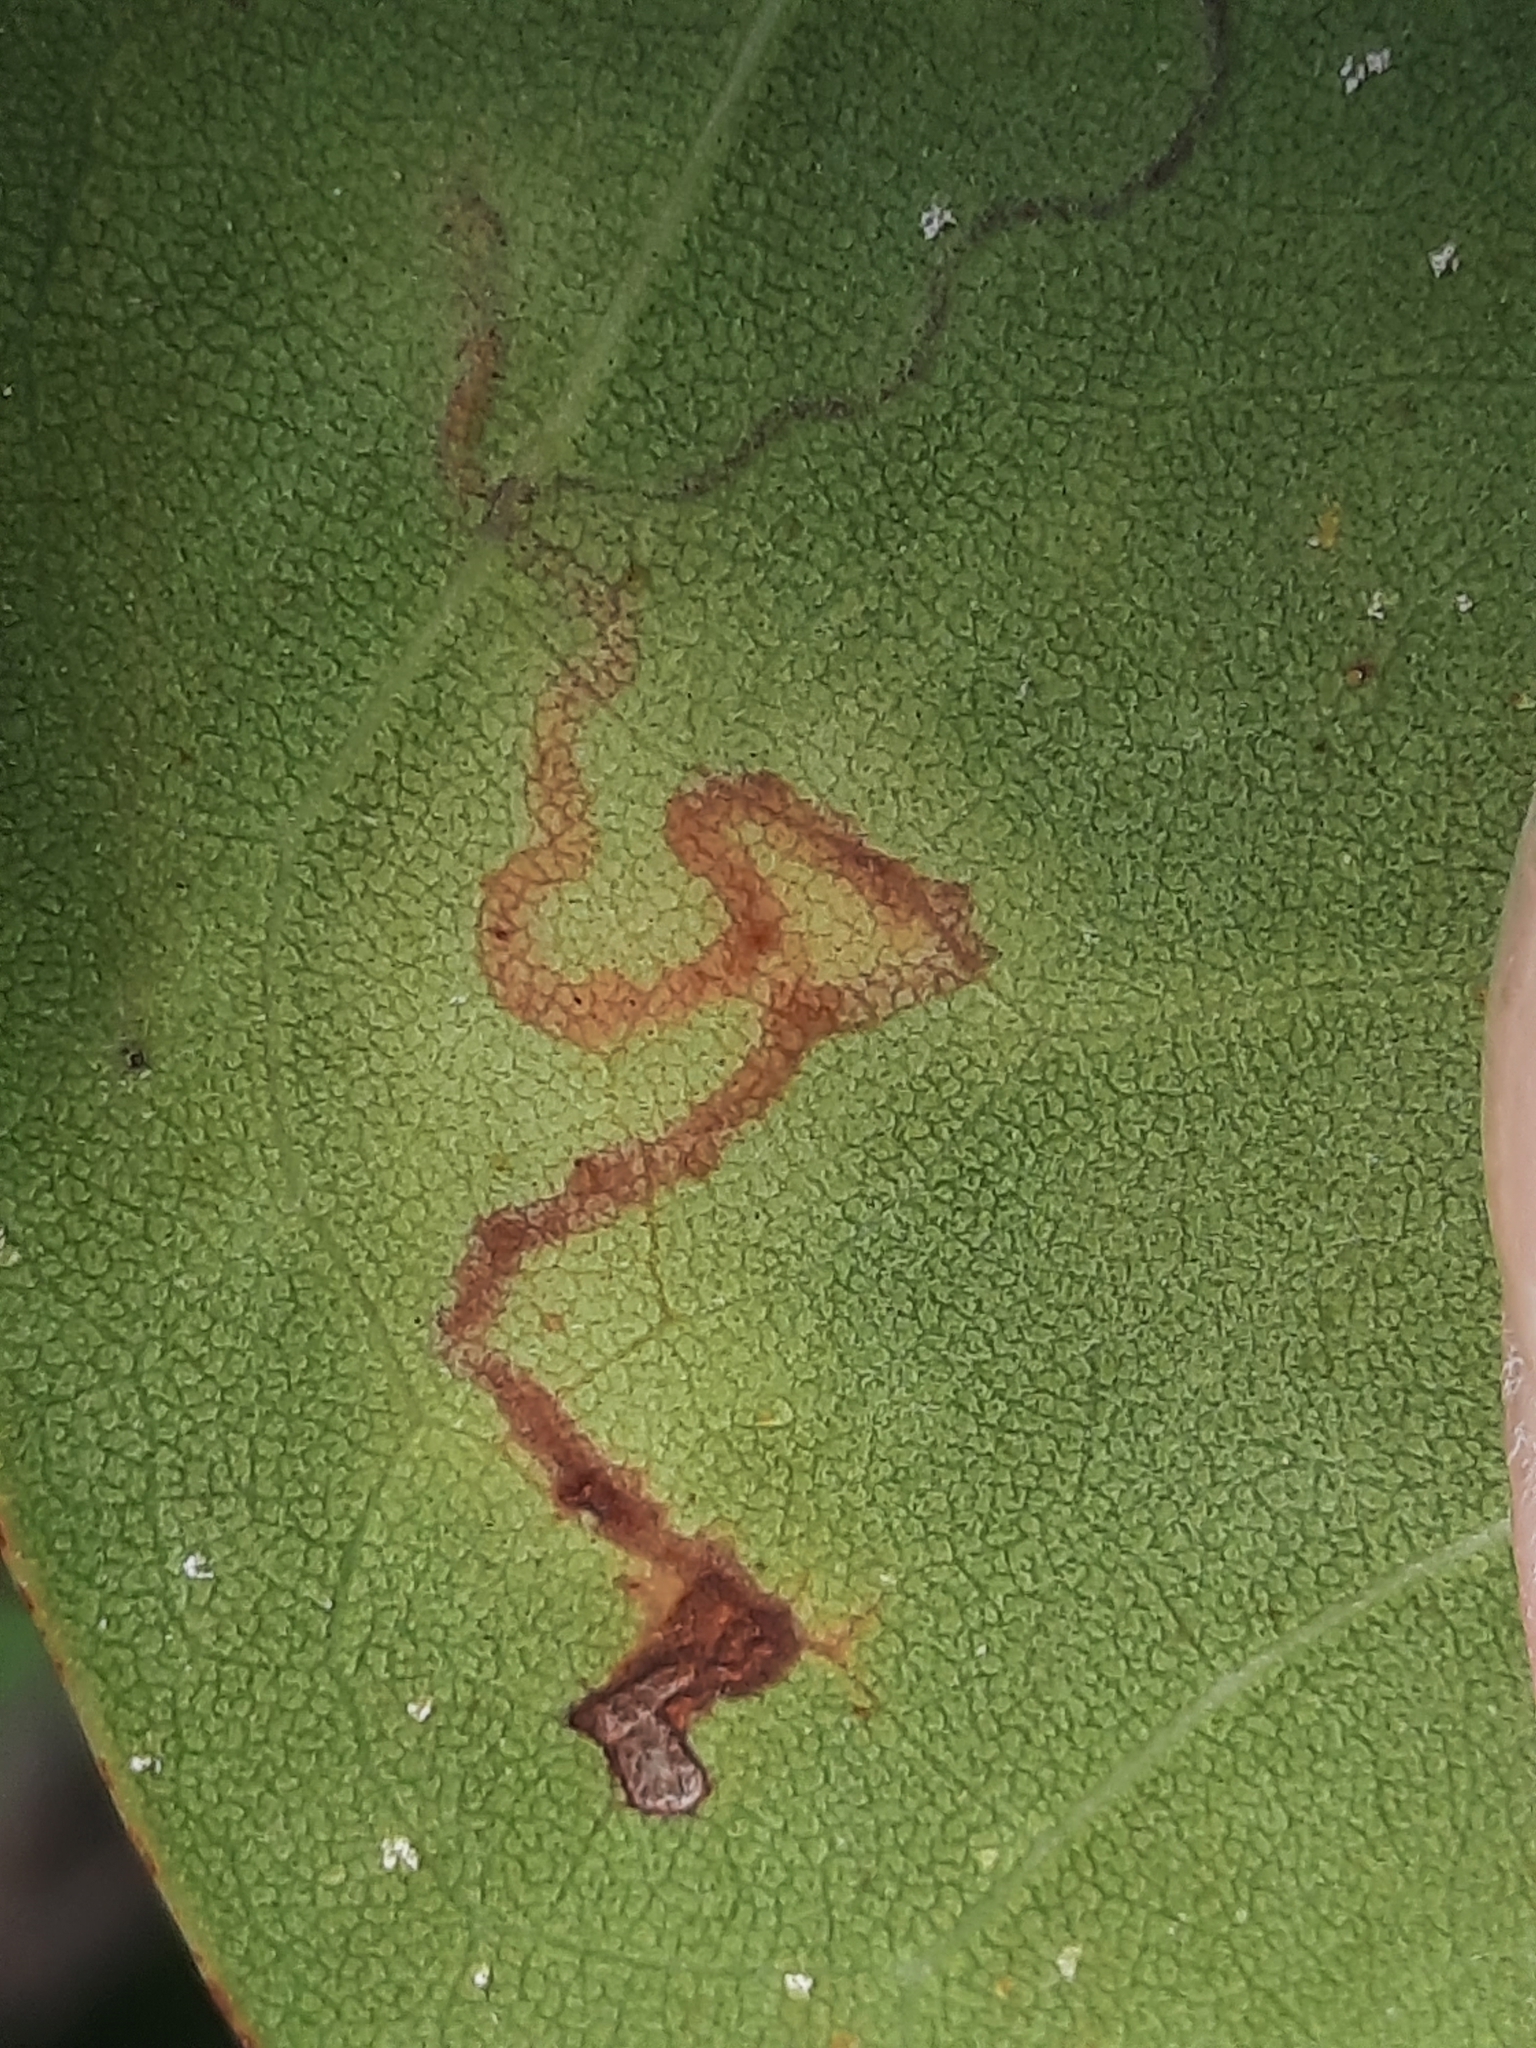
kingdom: Animalia
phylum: Arthropoda
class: Insecta
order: Lepidoptera
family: Nepticulidae
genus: Enteucha
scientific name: Enteucha basidactyla
